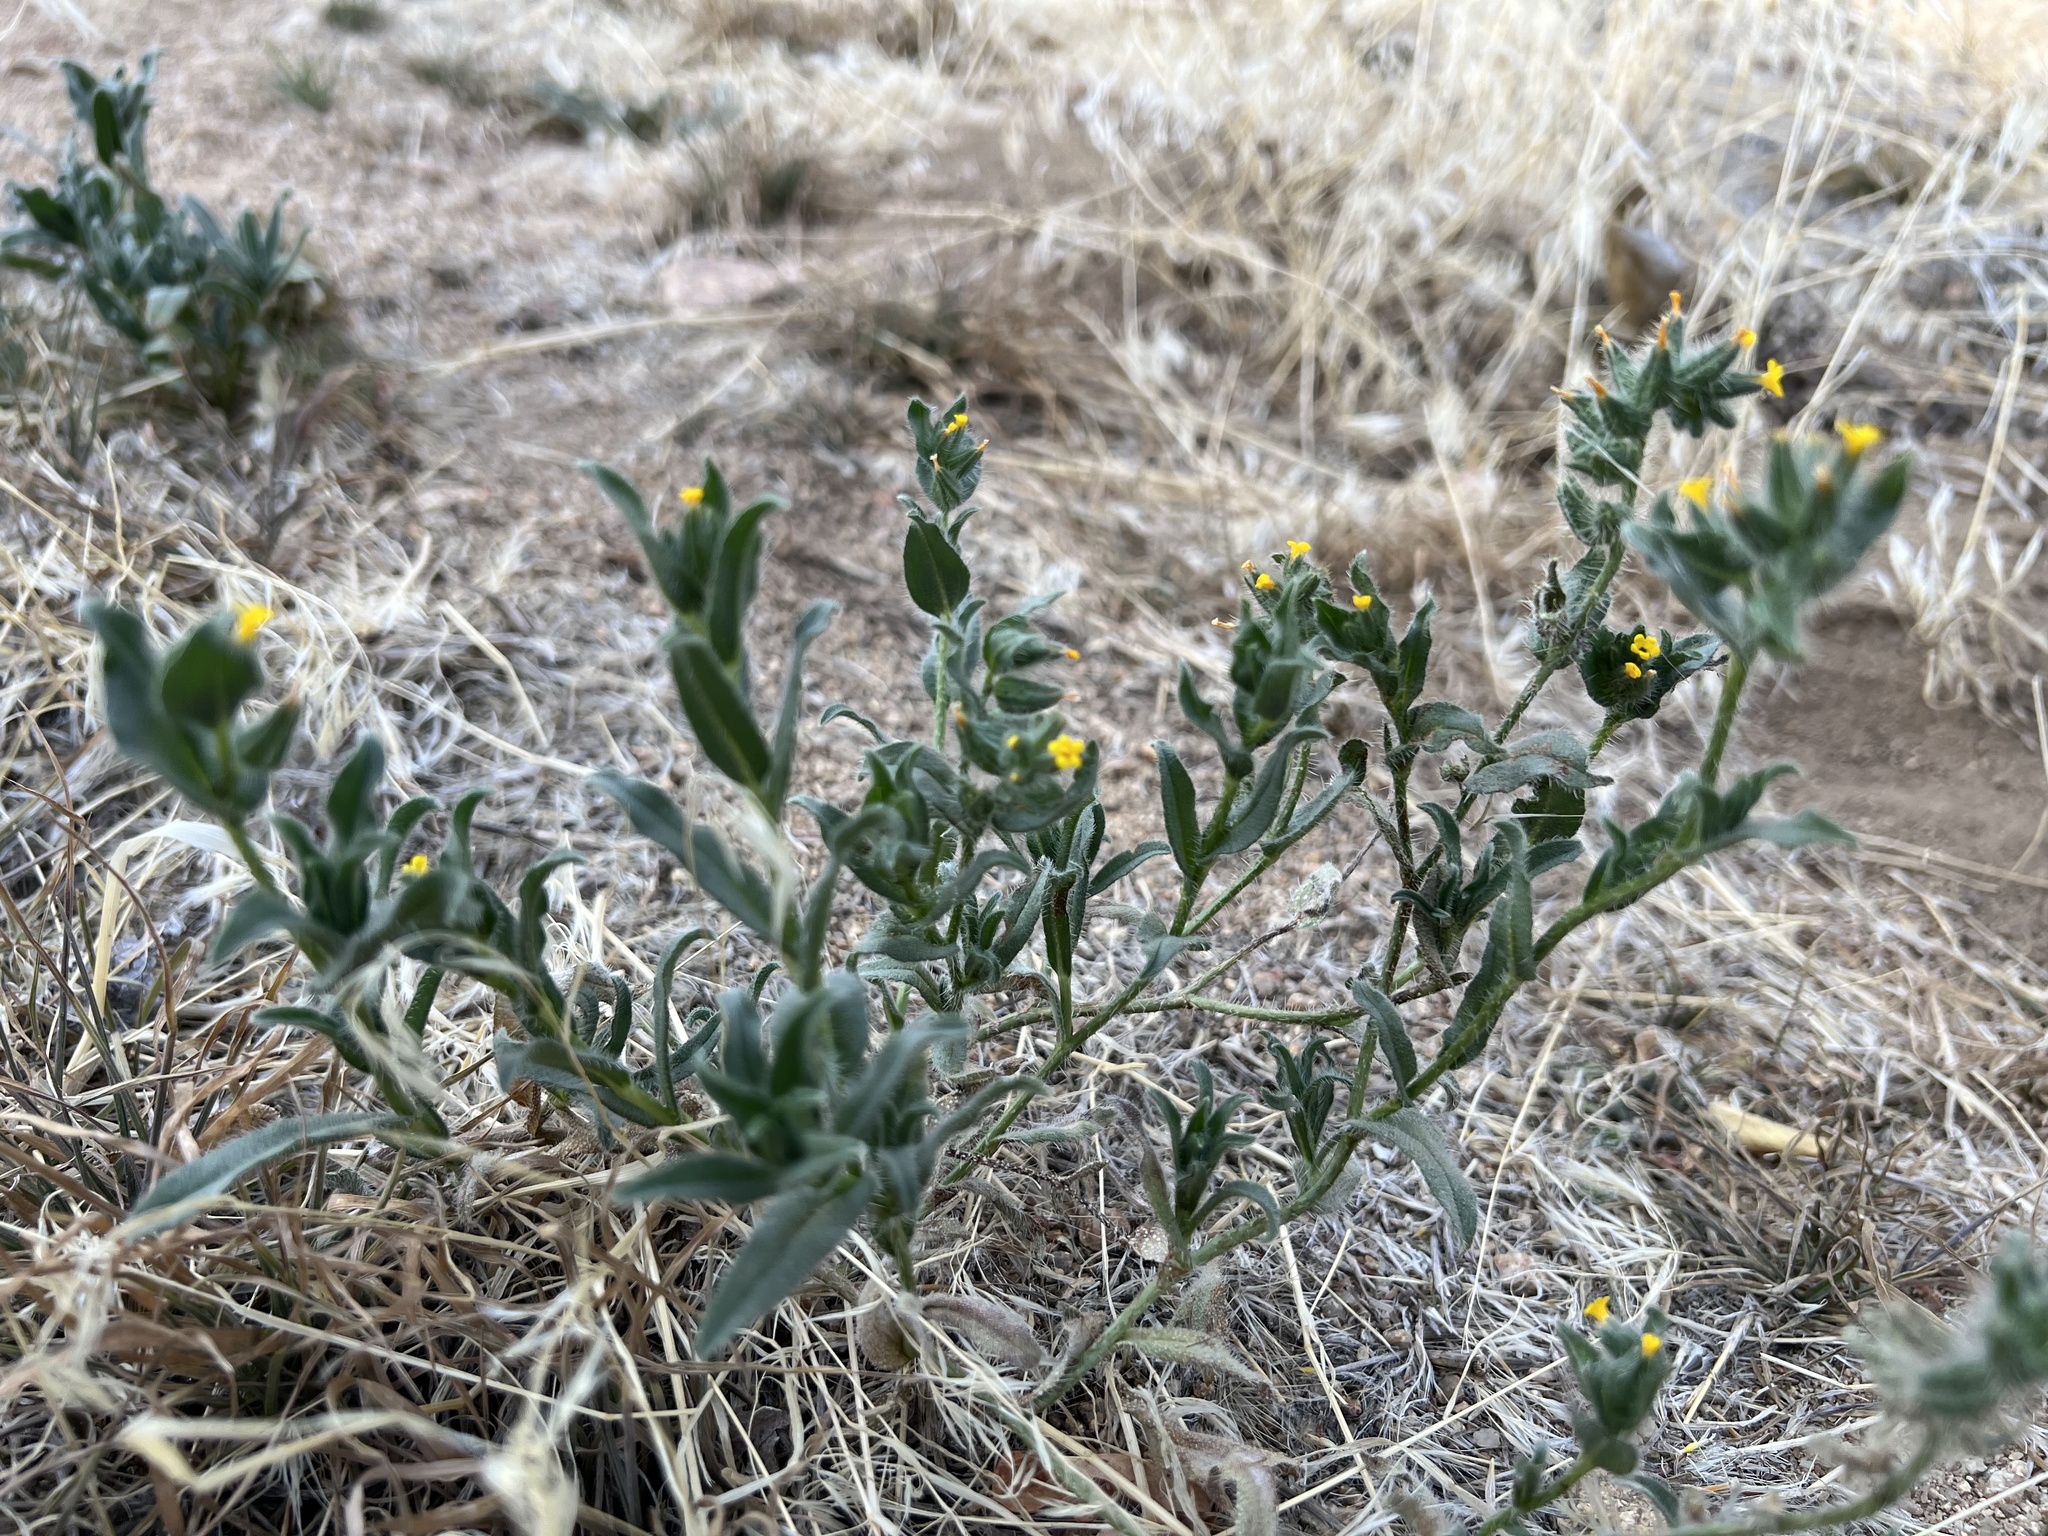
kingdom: Plantae
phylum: Tracheophyta
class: Magnoliopsida
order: Boraginales
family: Boraginaceae
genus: Amsinckia
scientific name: Amsinckia tessellata
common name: Tessellate fiddleneck
